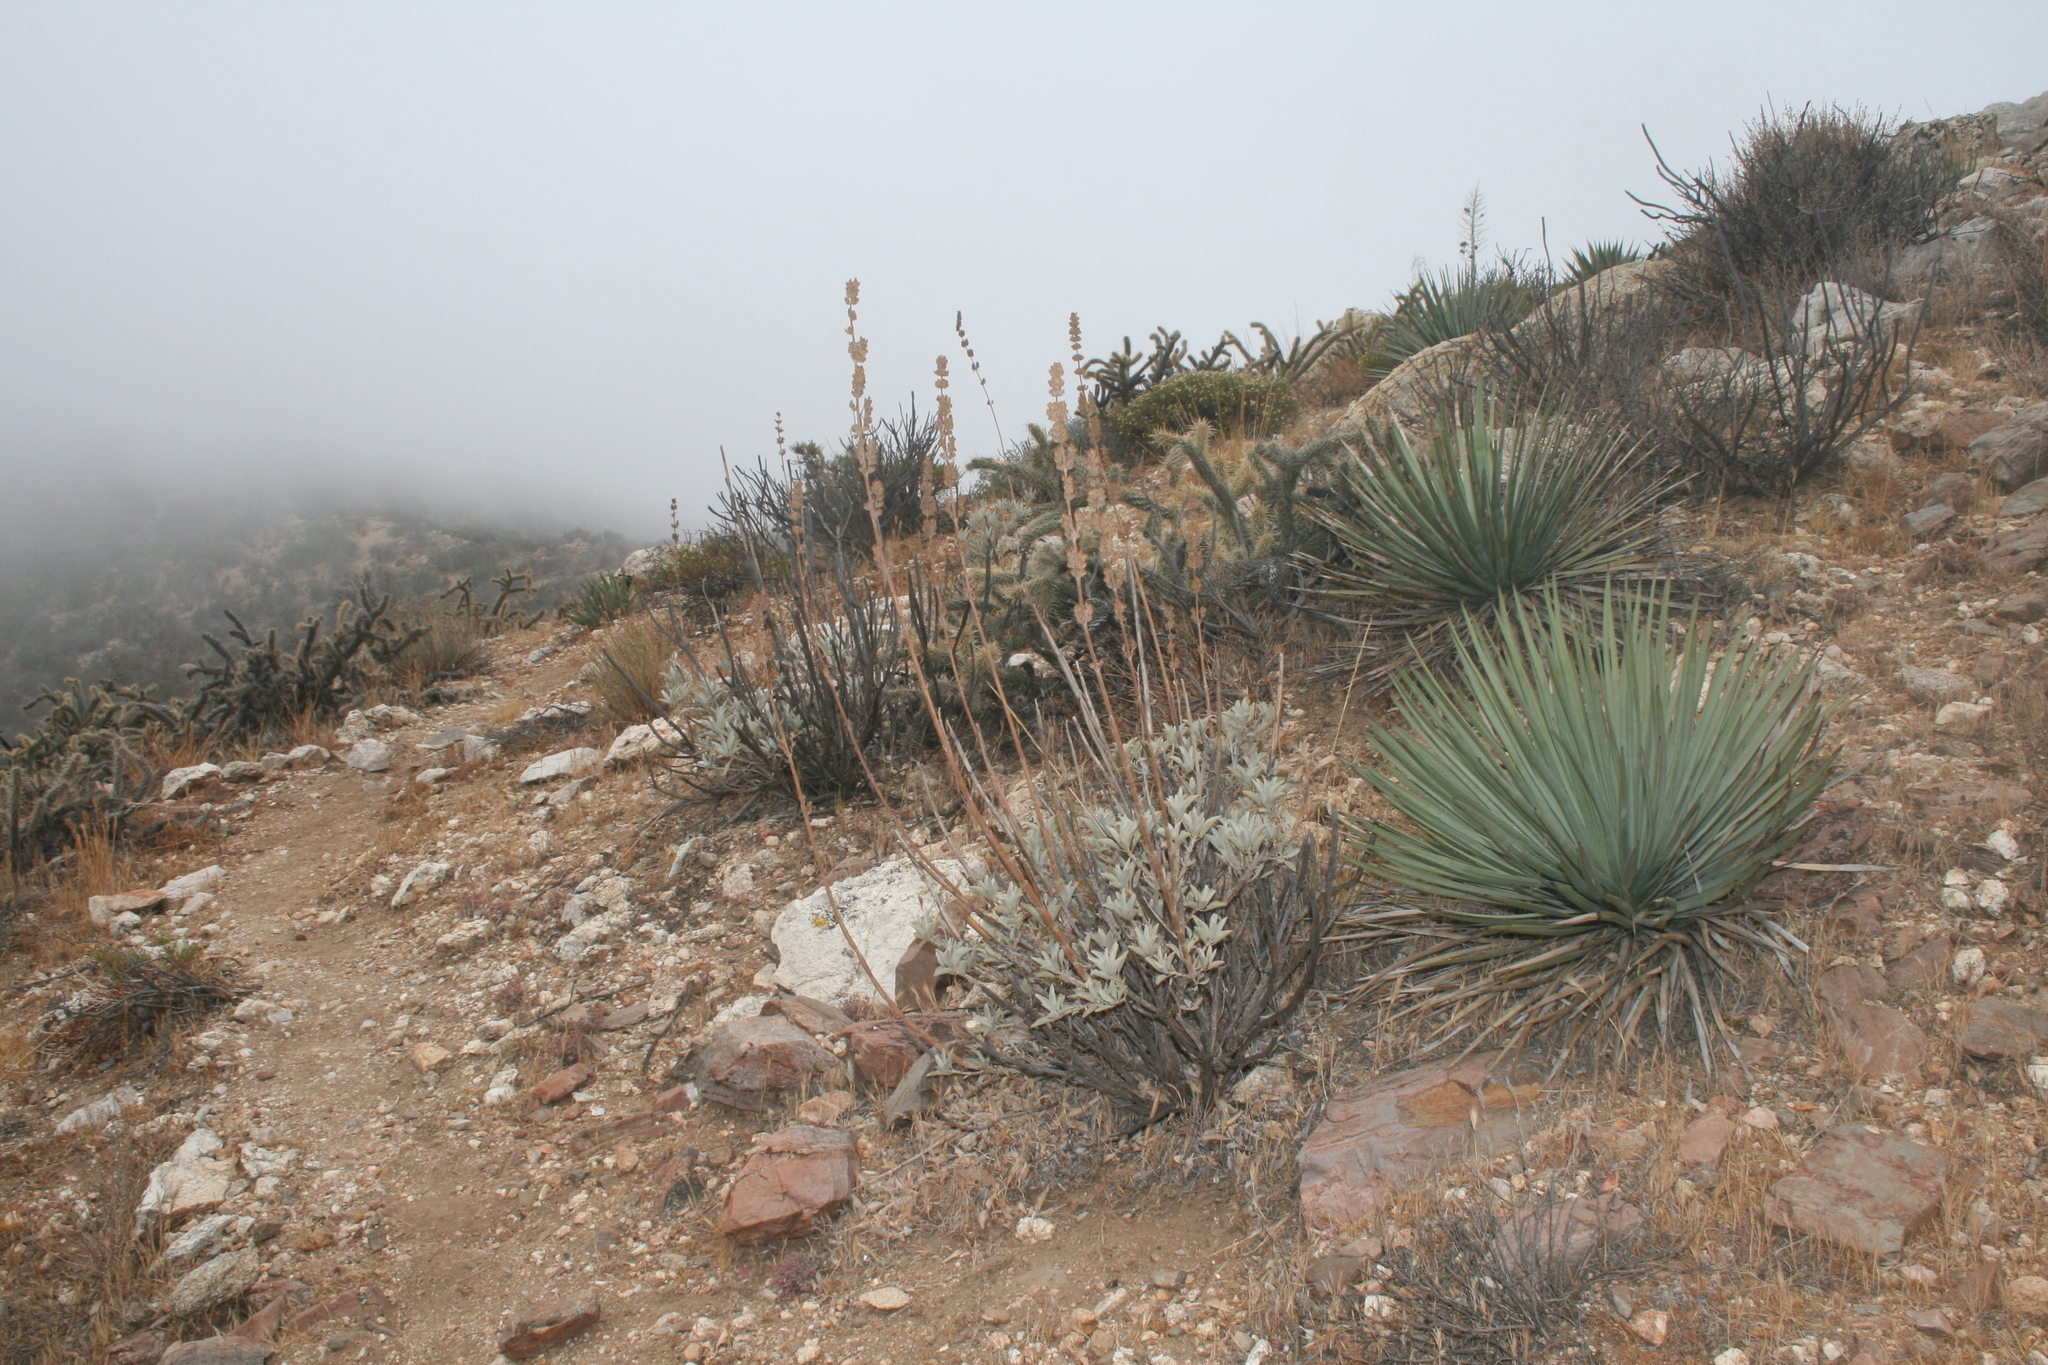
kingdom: Plantae
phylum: Tracheophyta
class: Liliopsida
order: Asparagales
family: Asparagaceae
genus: Hesperoyucca
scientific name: Hesperoyucca whipplei
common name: Our lord's-candle
